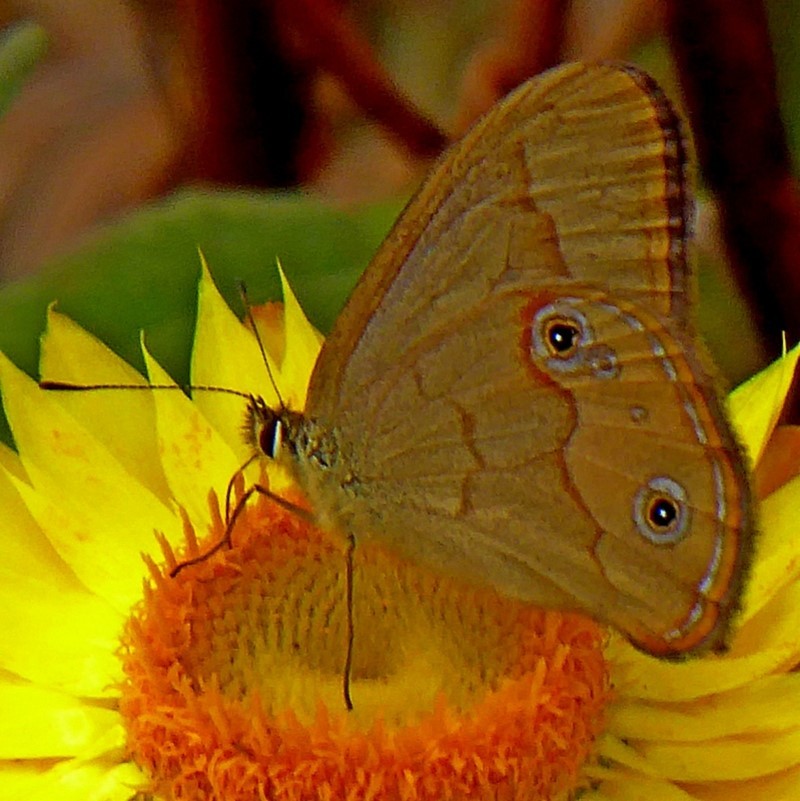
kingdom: Animalia
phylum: Arthropoda
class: Insecta
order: Lepidoptera
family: Nymphalidae
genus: Hypocysta
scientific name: Hypocysta metirius
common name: Brown ringlet
